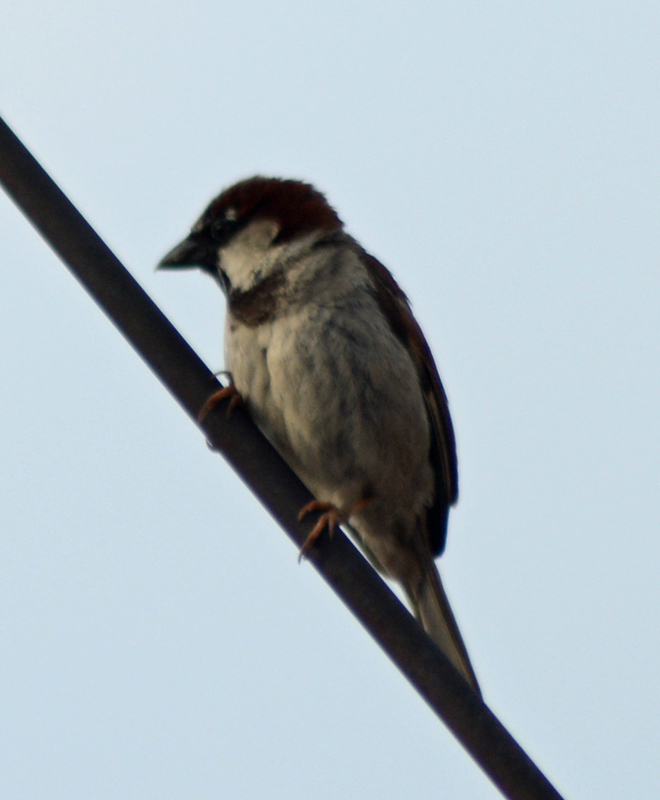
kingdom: Animalia
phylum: Chordata
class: Aves
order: Passeriformes
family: Passeridae
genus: Passer
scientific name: Passer domesticus
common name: House sparrow
